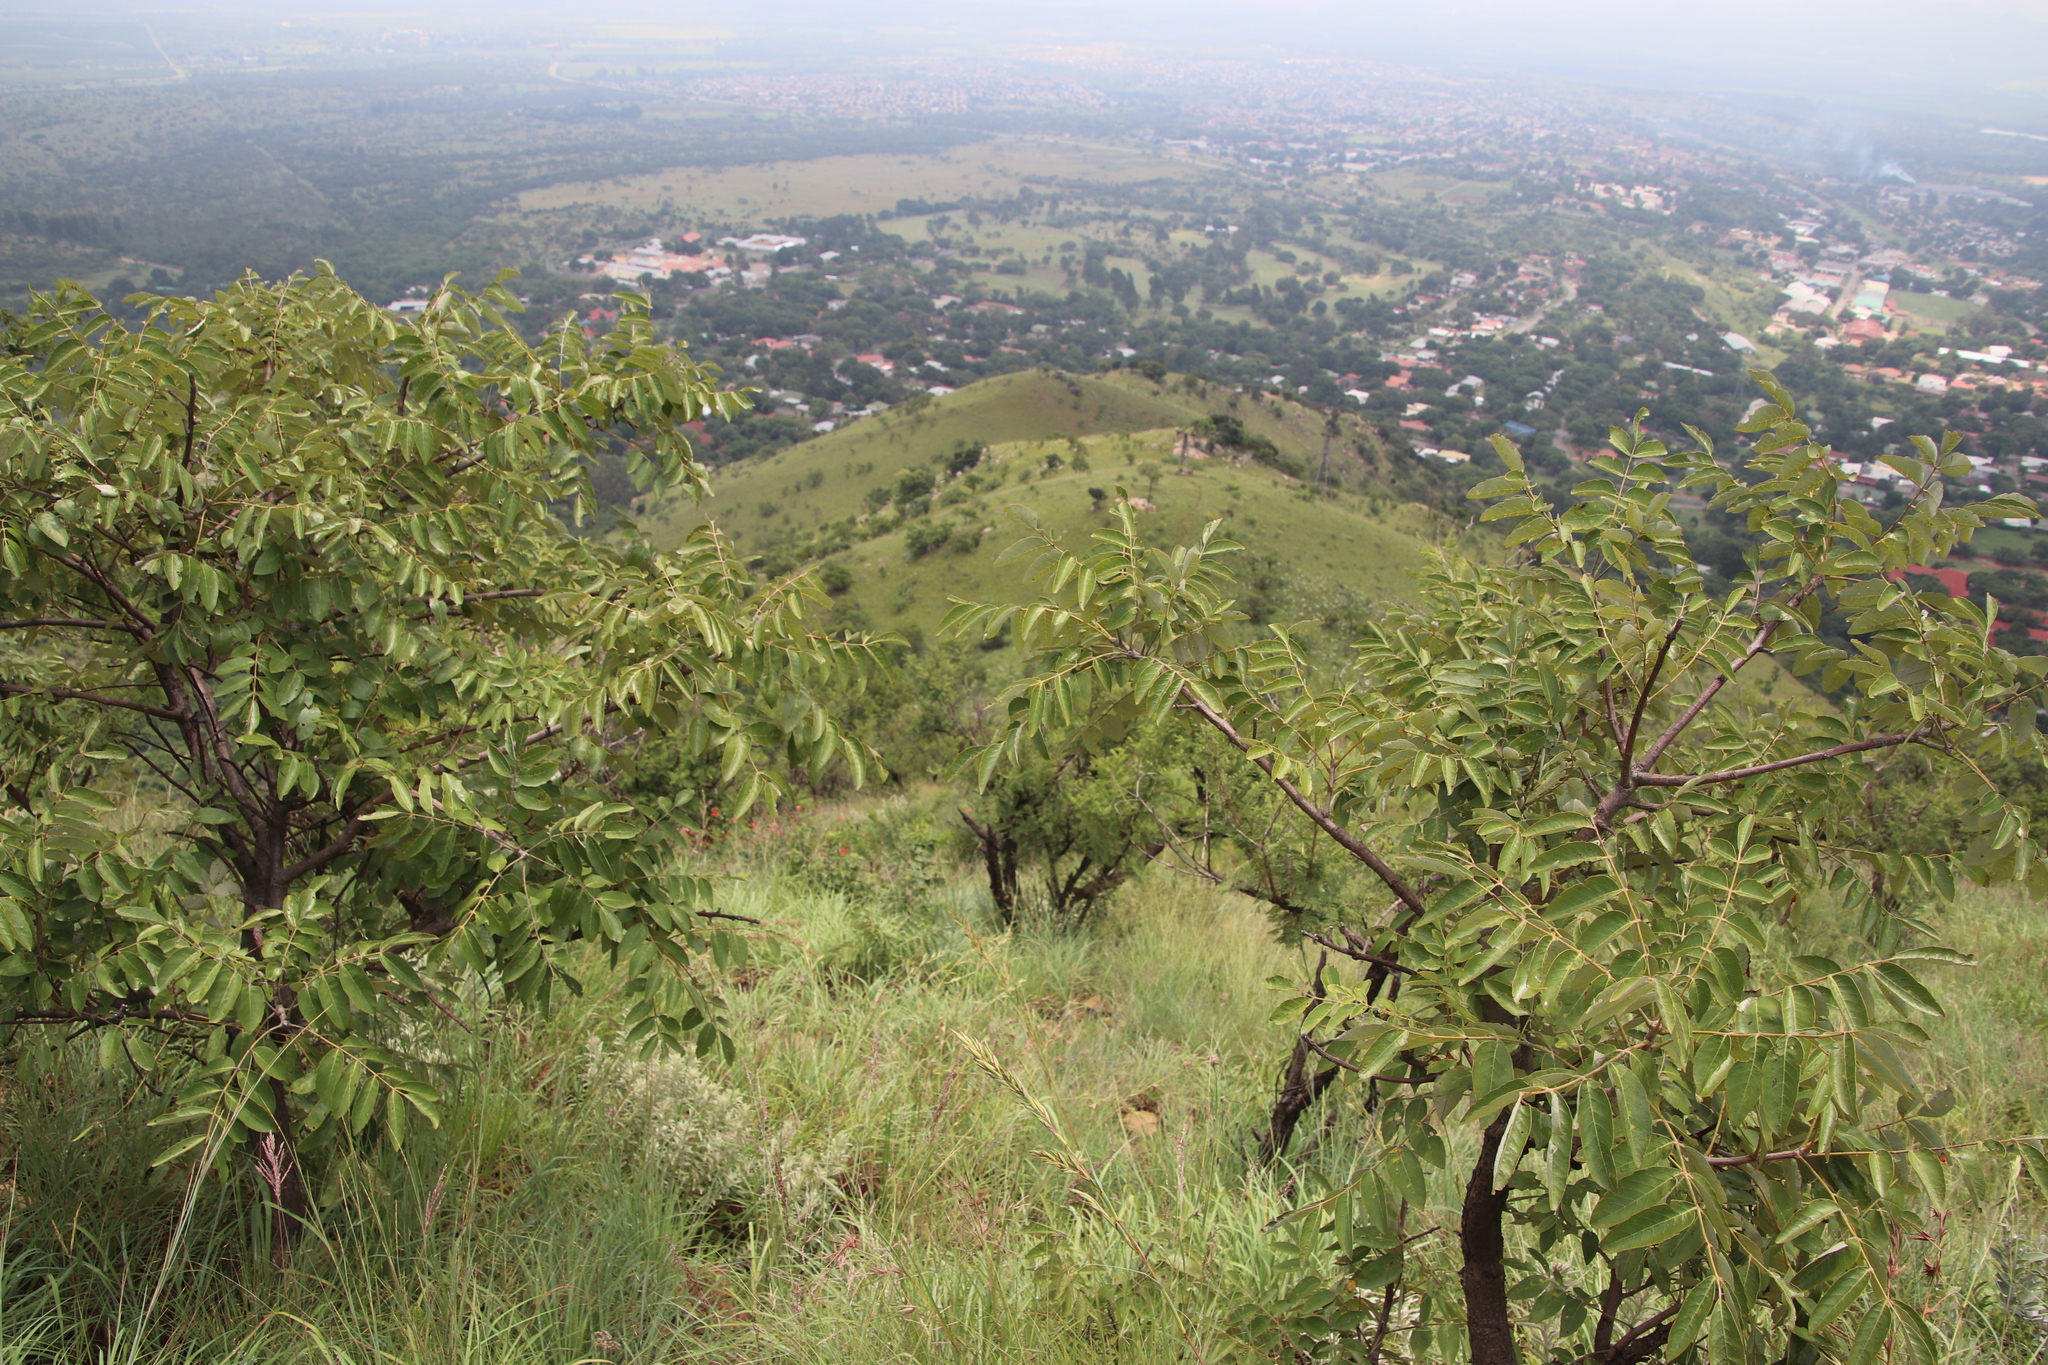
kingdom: Plantae
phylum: Tracheophyta
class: Magnoliopsida
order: Sapindales
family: Anacardiaceae
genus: Lannea
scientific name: Lannea discolor
